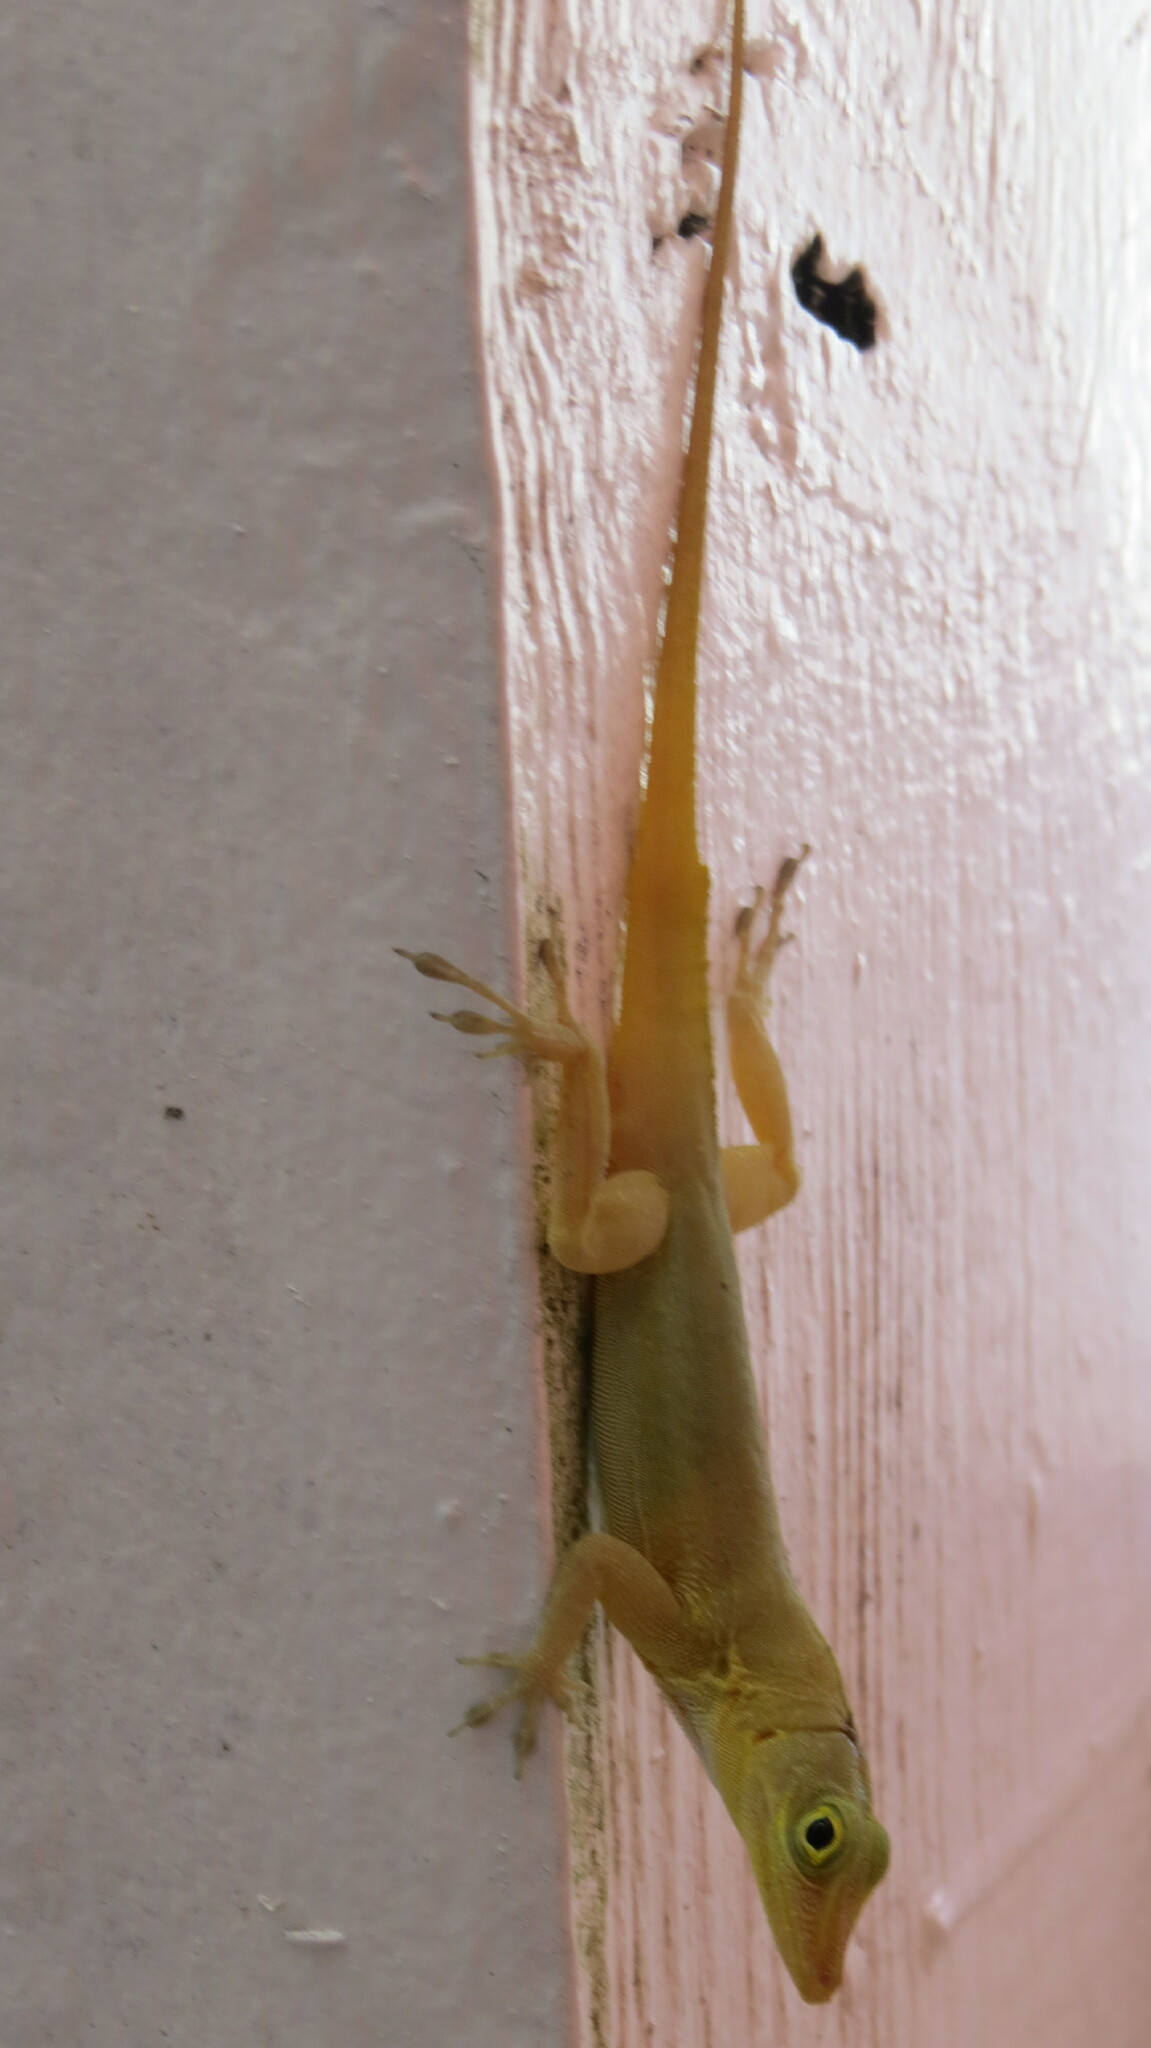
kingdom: Animalia
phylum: Chordata
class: Squamata
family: Dactyloidae
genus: Anolis
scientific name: Anolis acutus
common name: Saint croix's anole
